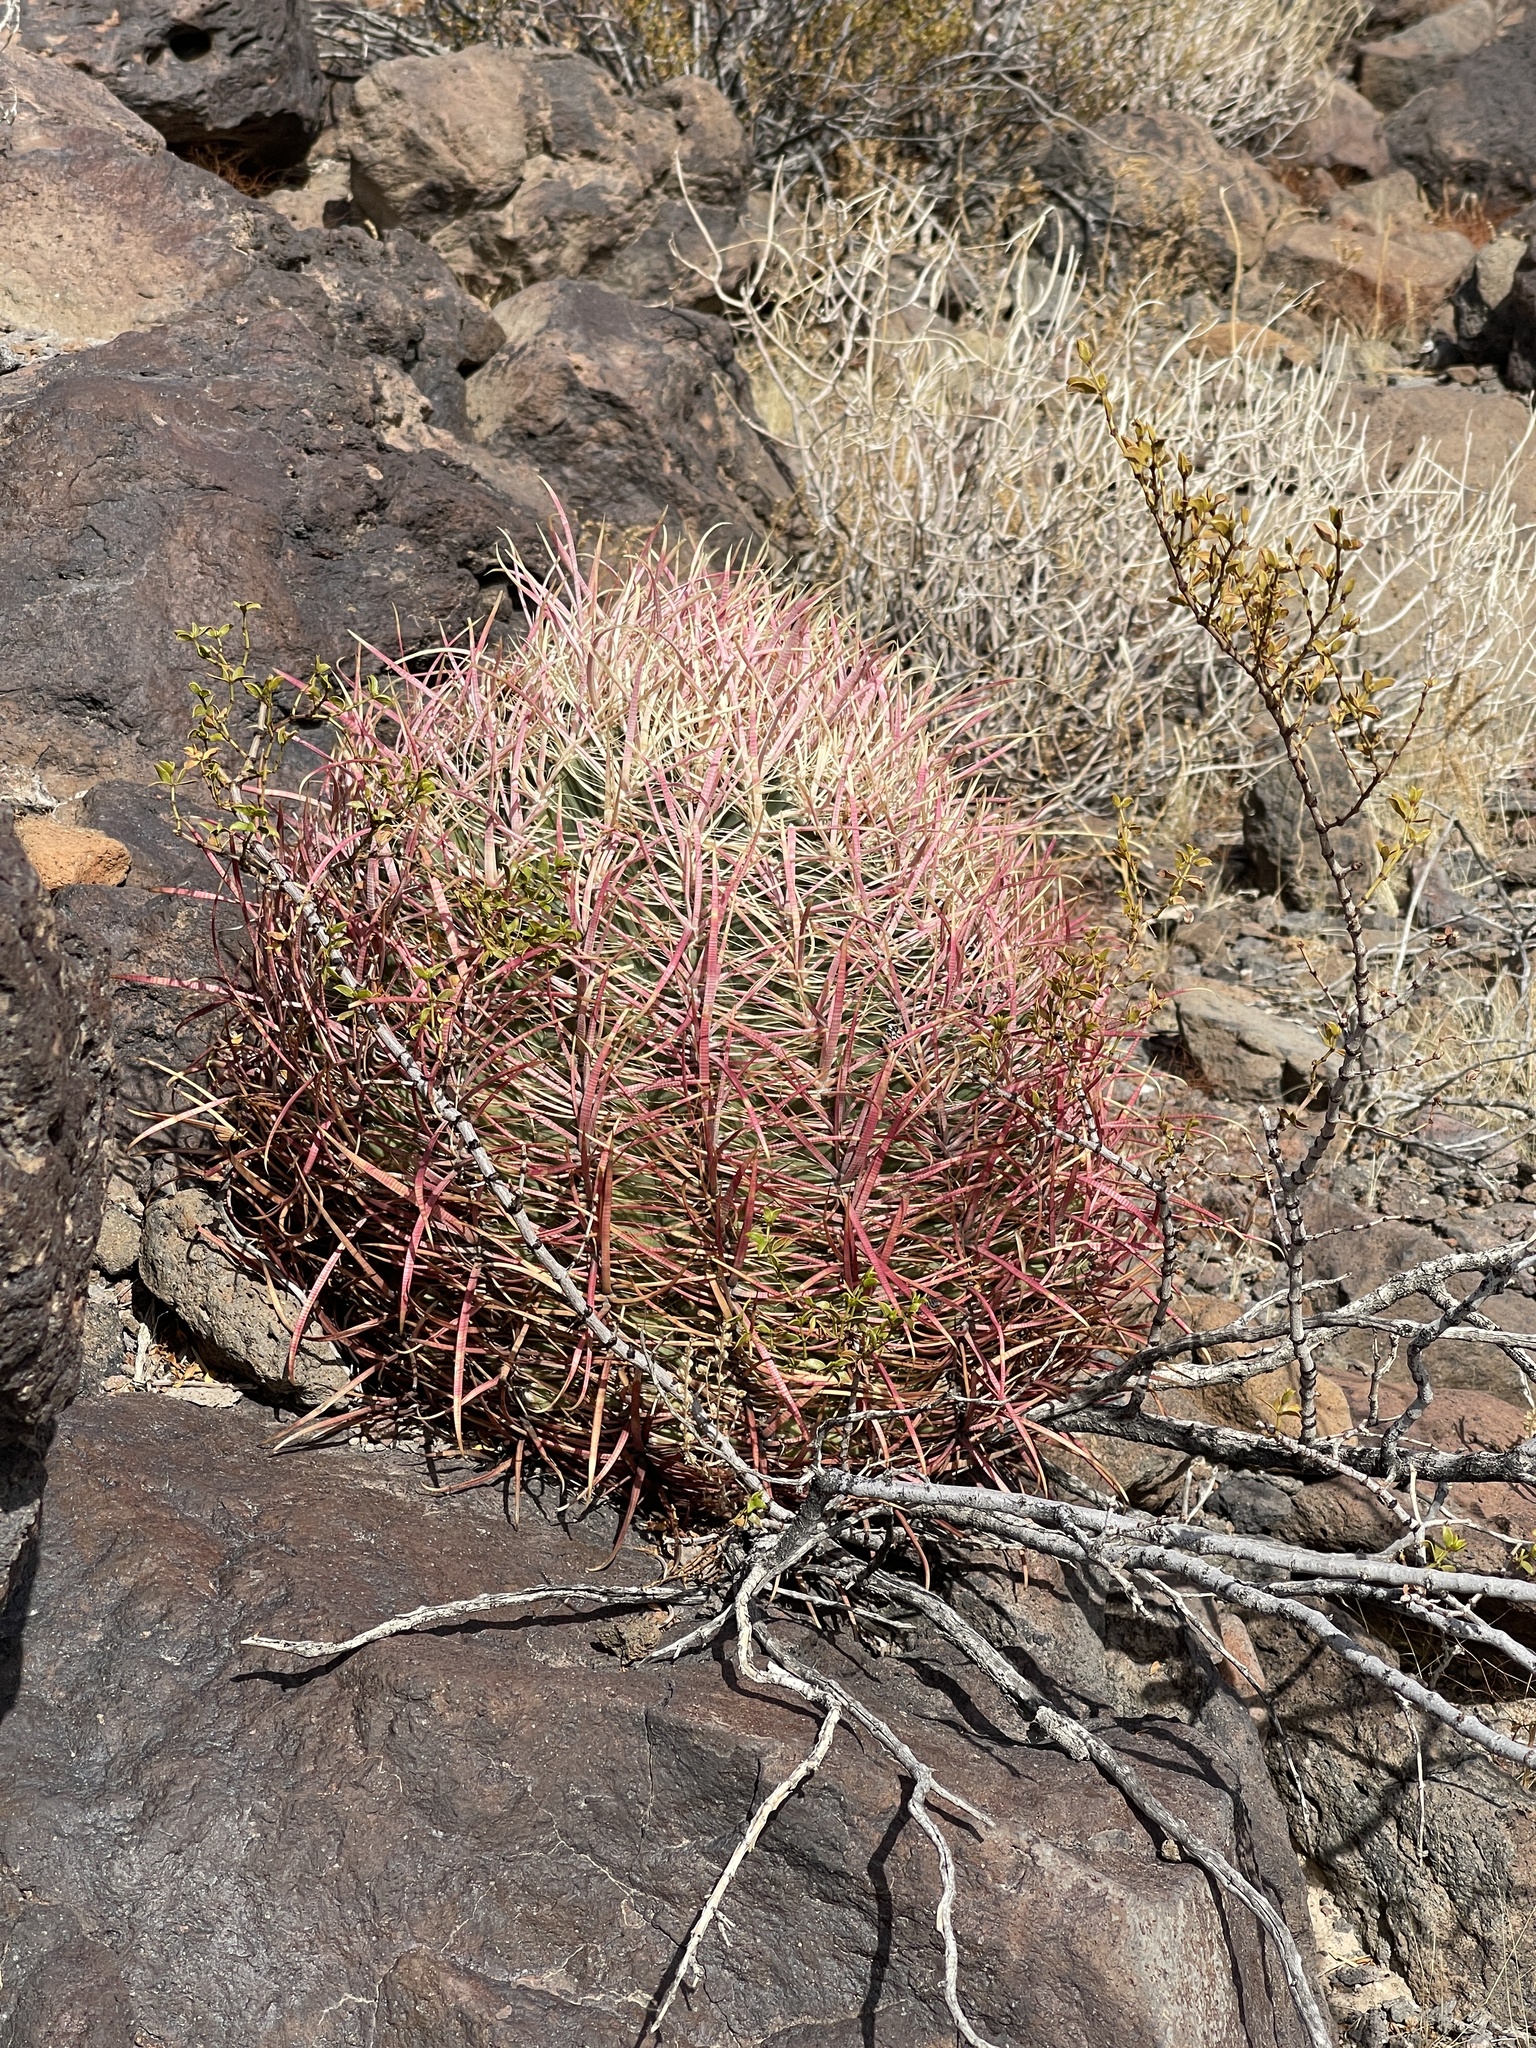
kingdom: Plantae
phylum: Tracheophyta
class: Magnoliopsida
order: Caryophyllales
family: Cactaceae
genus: Ferocactus
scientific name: Ferocactus cylindraceus
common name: California barrel cactus
